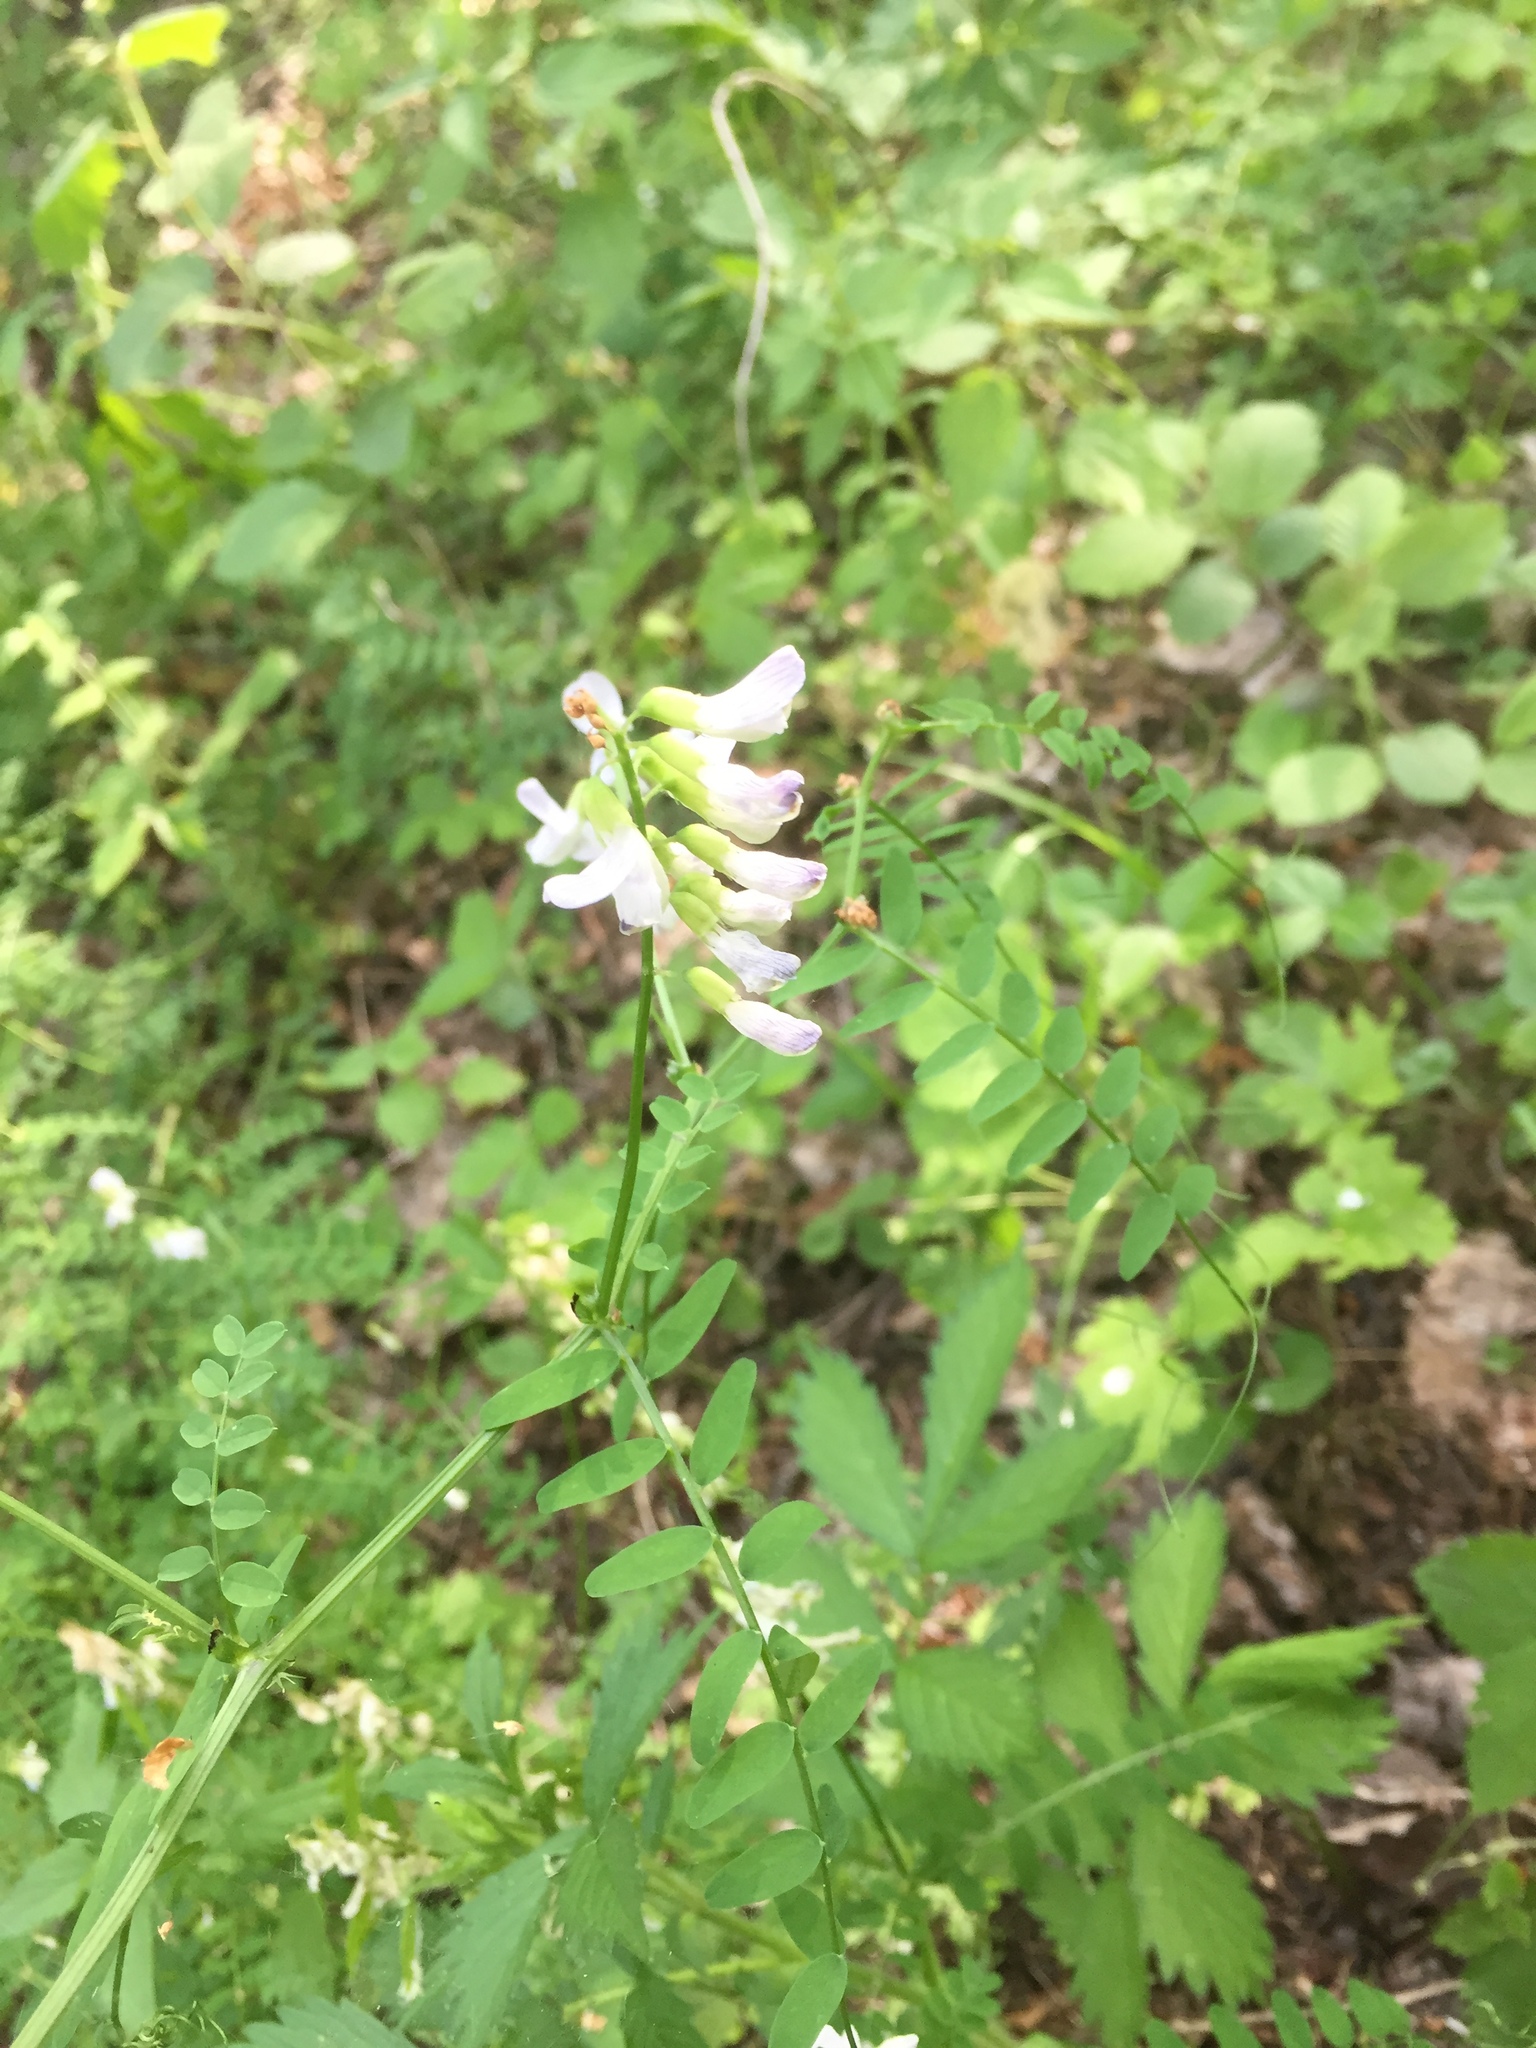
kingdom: Plantae
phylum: Tracheophyta
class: Magnoliopsida
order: Fabales
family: Fabaceae
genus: Vicia
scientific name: Vicia sylvatica
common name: Wood vetch
